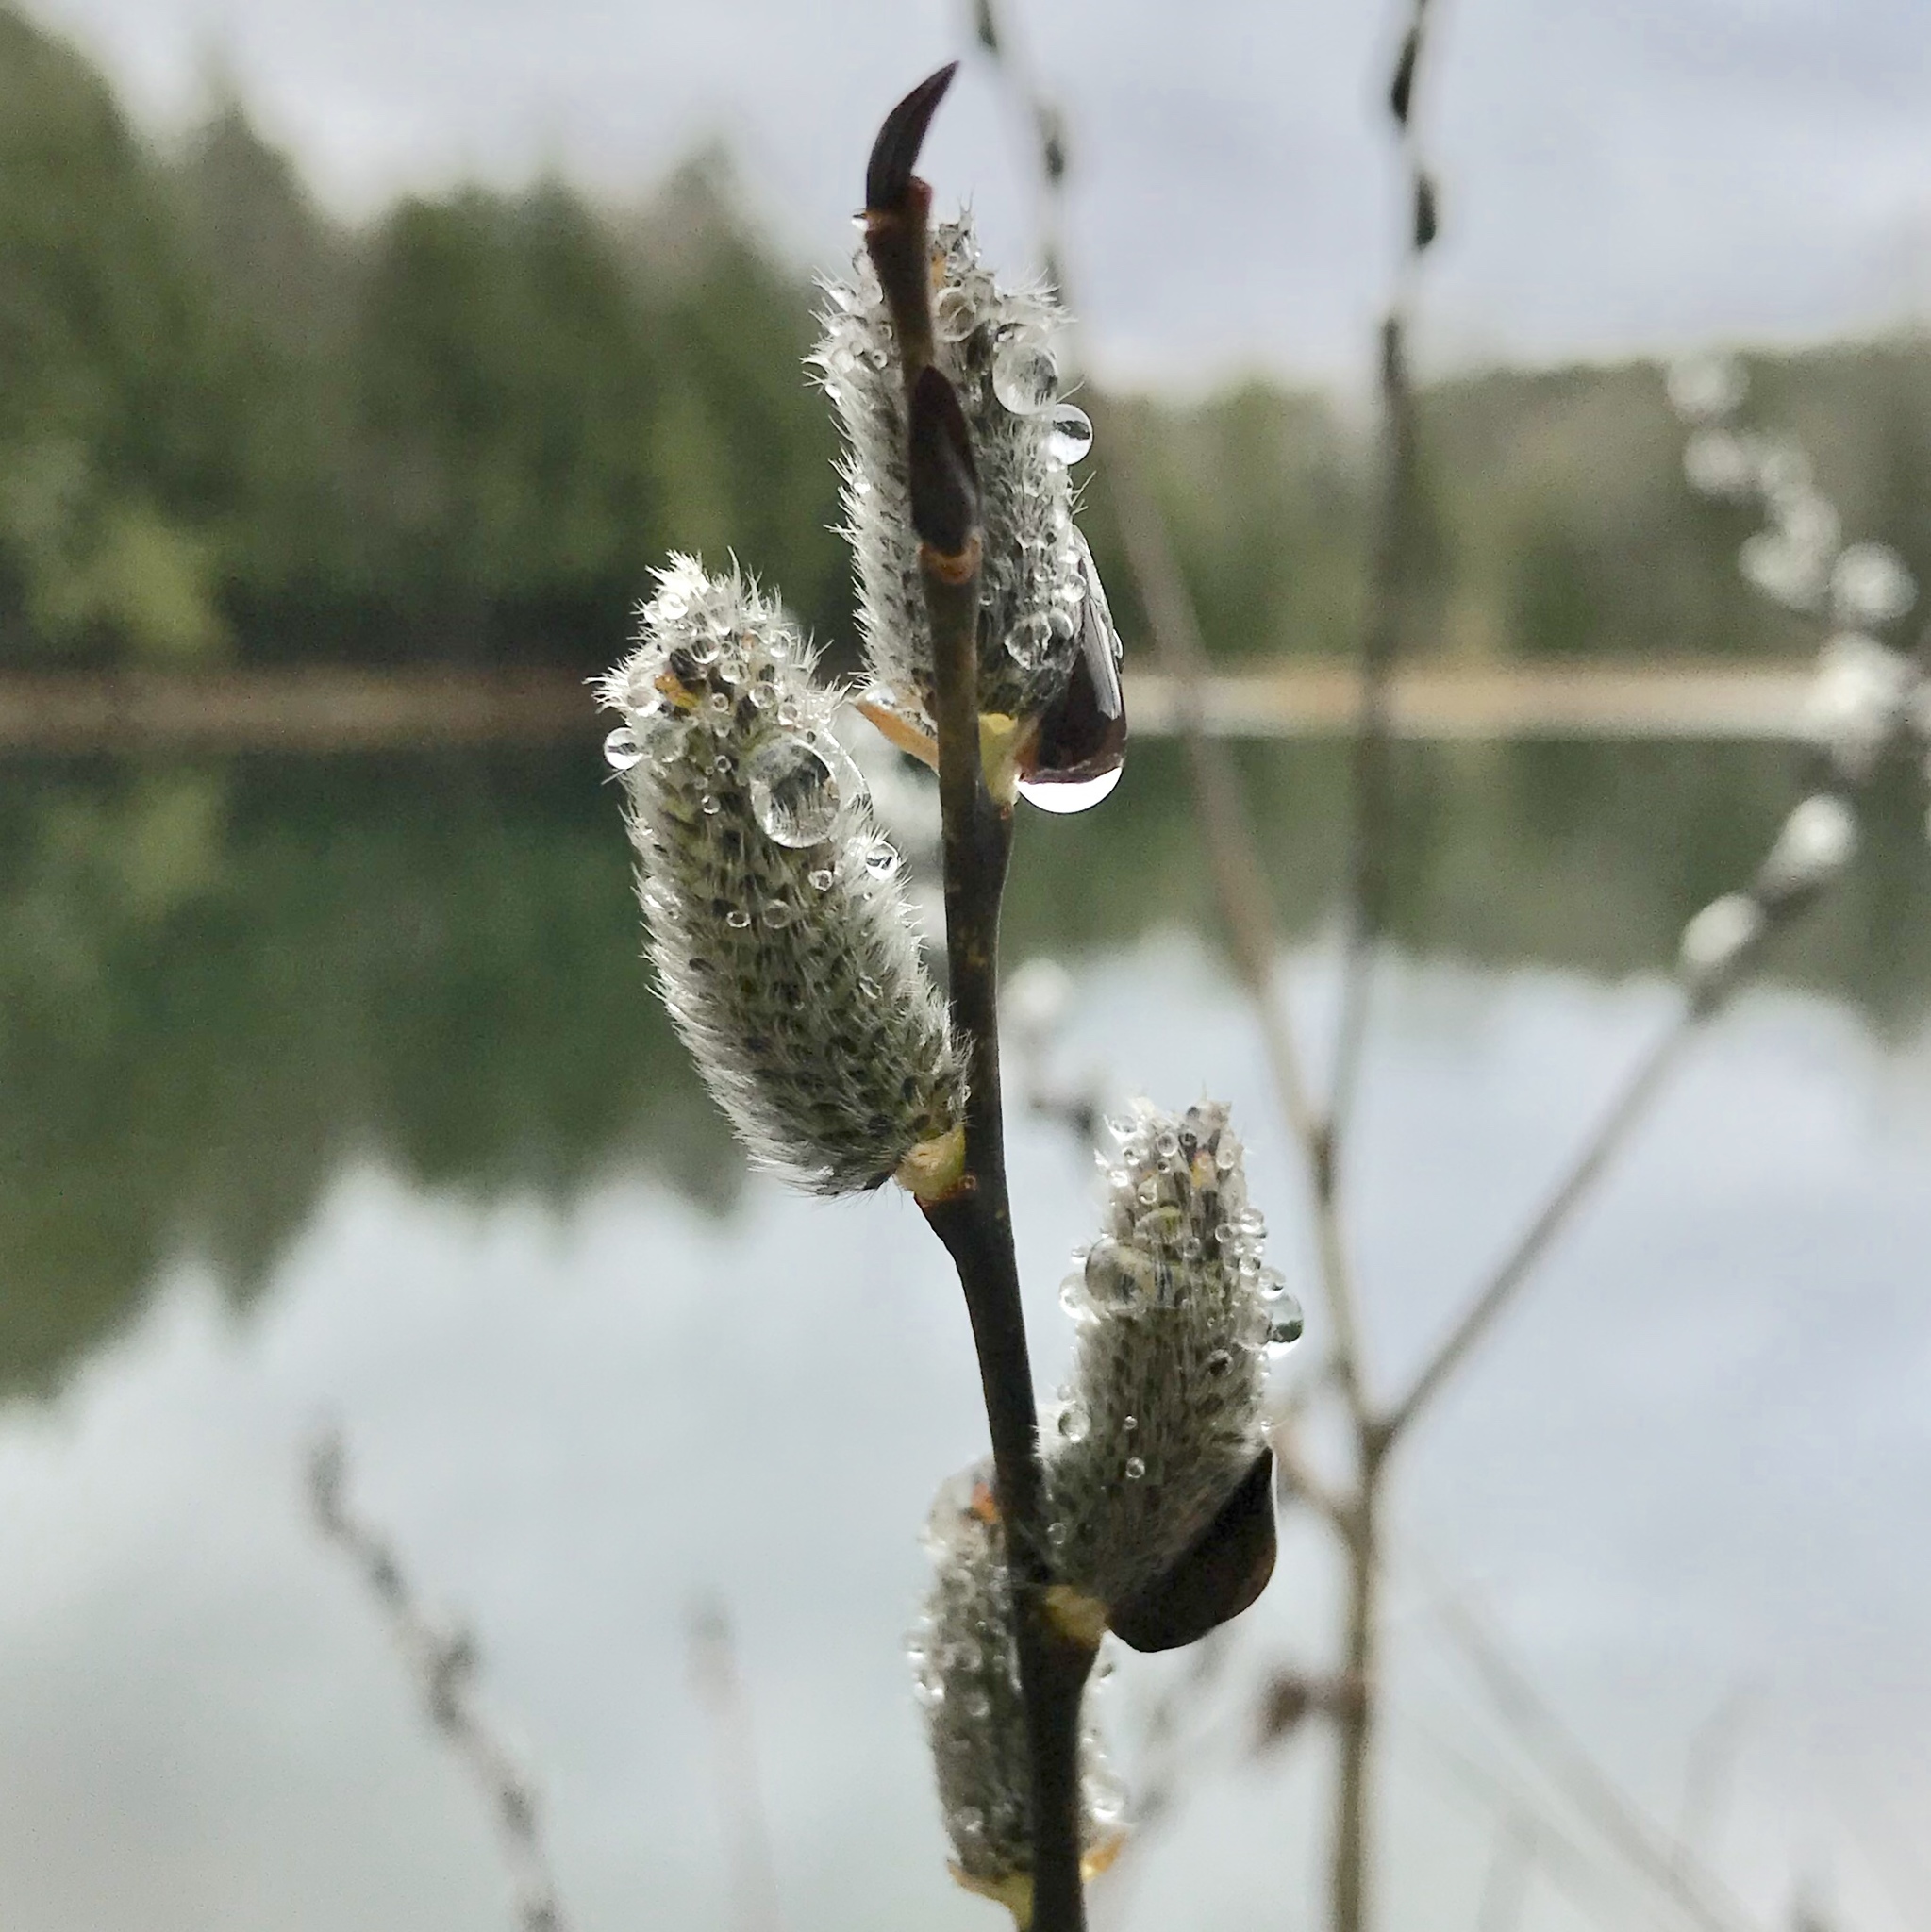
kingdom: Plantae
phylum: Tracheophyta
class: Magnoliopsida
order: Malpighiales
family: Salicaceae
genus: Salix
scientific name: Salix discolor
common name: Glaucous willow
